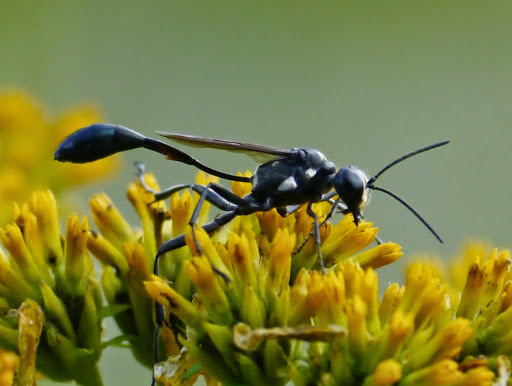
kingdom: Animalia
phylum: Arthropoda
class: Insecta
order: Hymenoptera
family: Sphecidae
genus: Eremnophila
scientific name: Eremnophila aureonotata
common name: Gold-marked thread-waisted wasp
